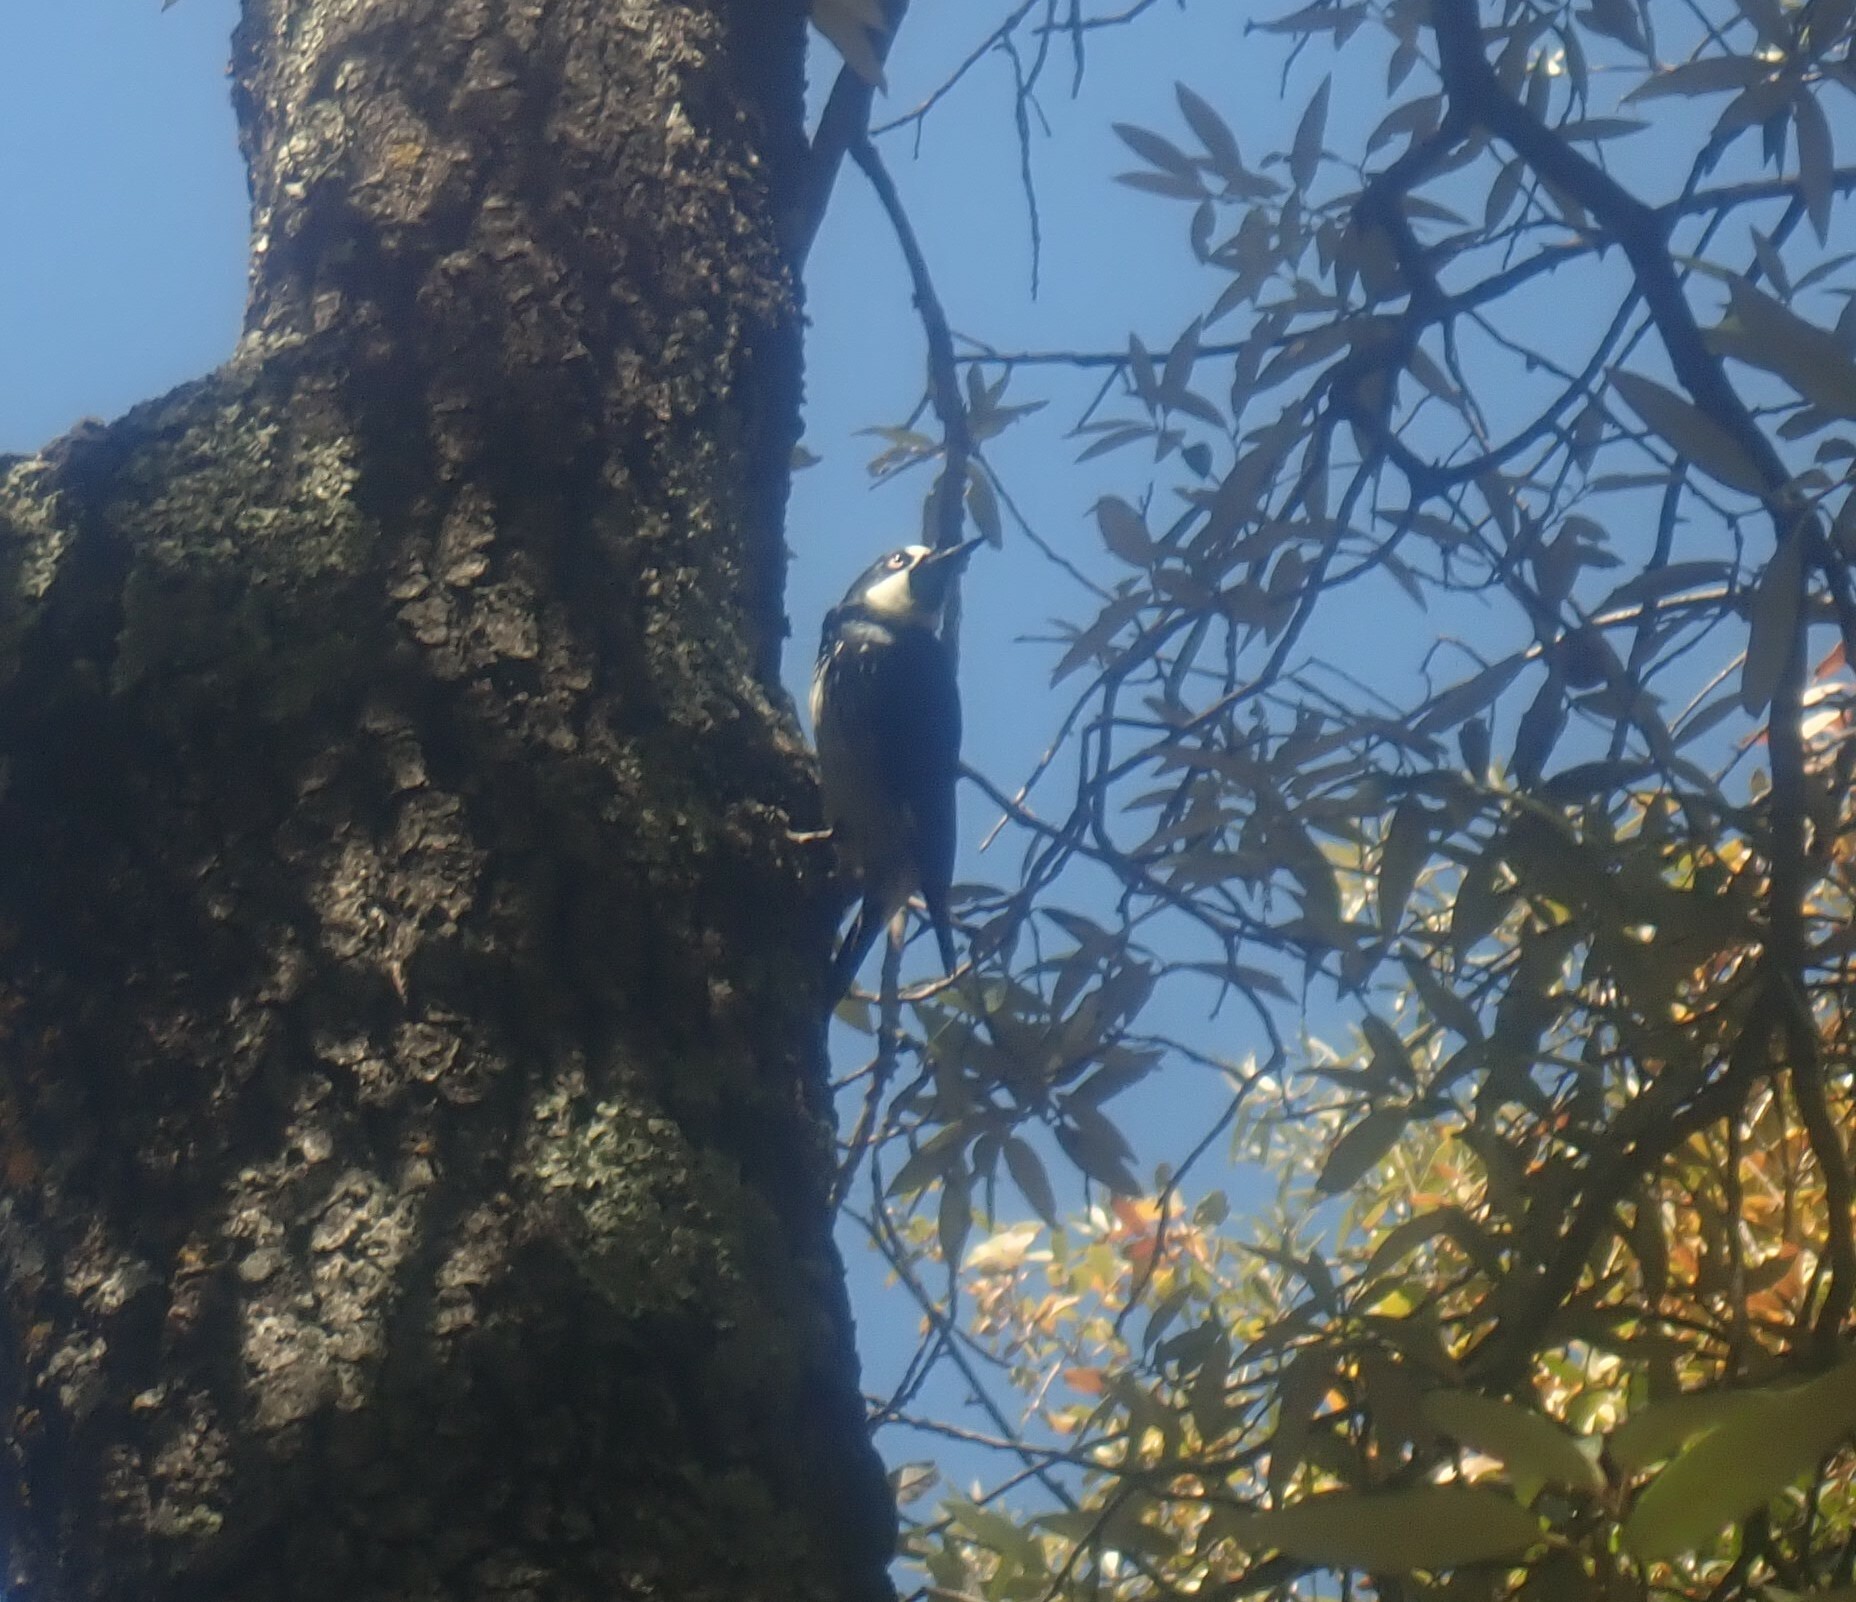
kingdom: Animalia
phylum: Chordata
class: Aves
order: Piciformes
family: Picidae
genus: Melanerpes
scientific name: Melanerpes formicivorus
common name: Acorn woodpecker
